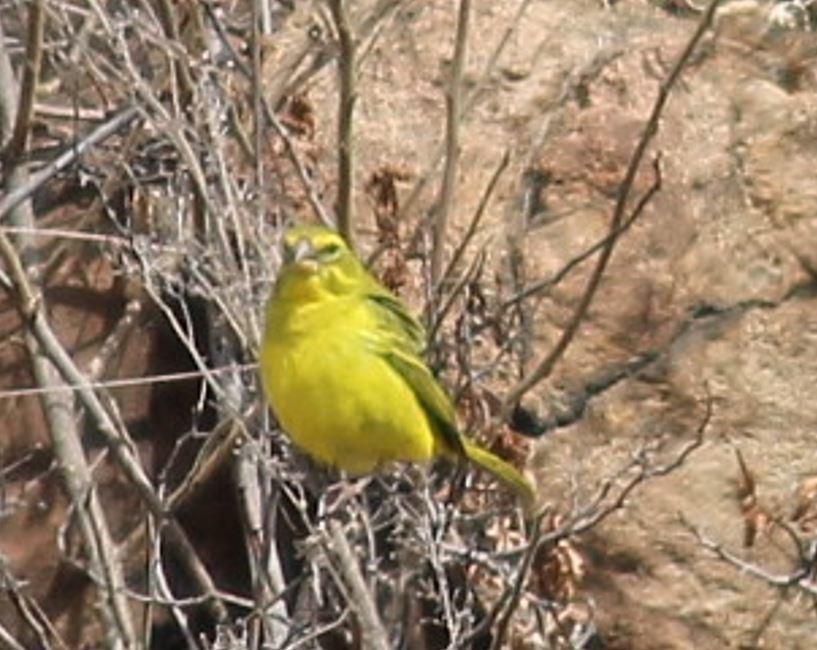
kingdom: Animalia
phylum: Chordata
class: Aves
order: Passeriformes
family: Fringillidae
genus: Crithagra
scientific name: Crithagra sulphurata
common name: Brimstone canary
